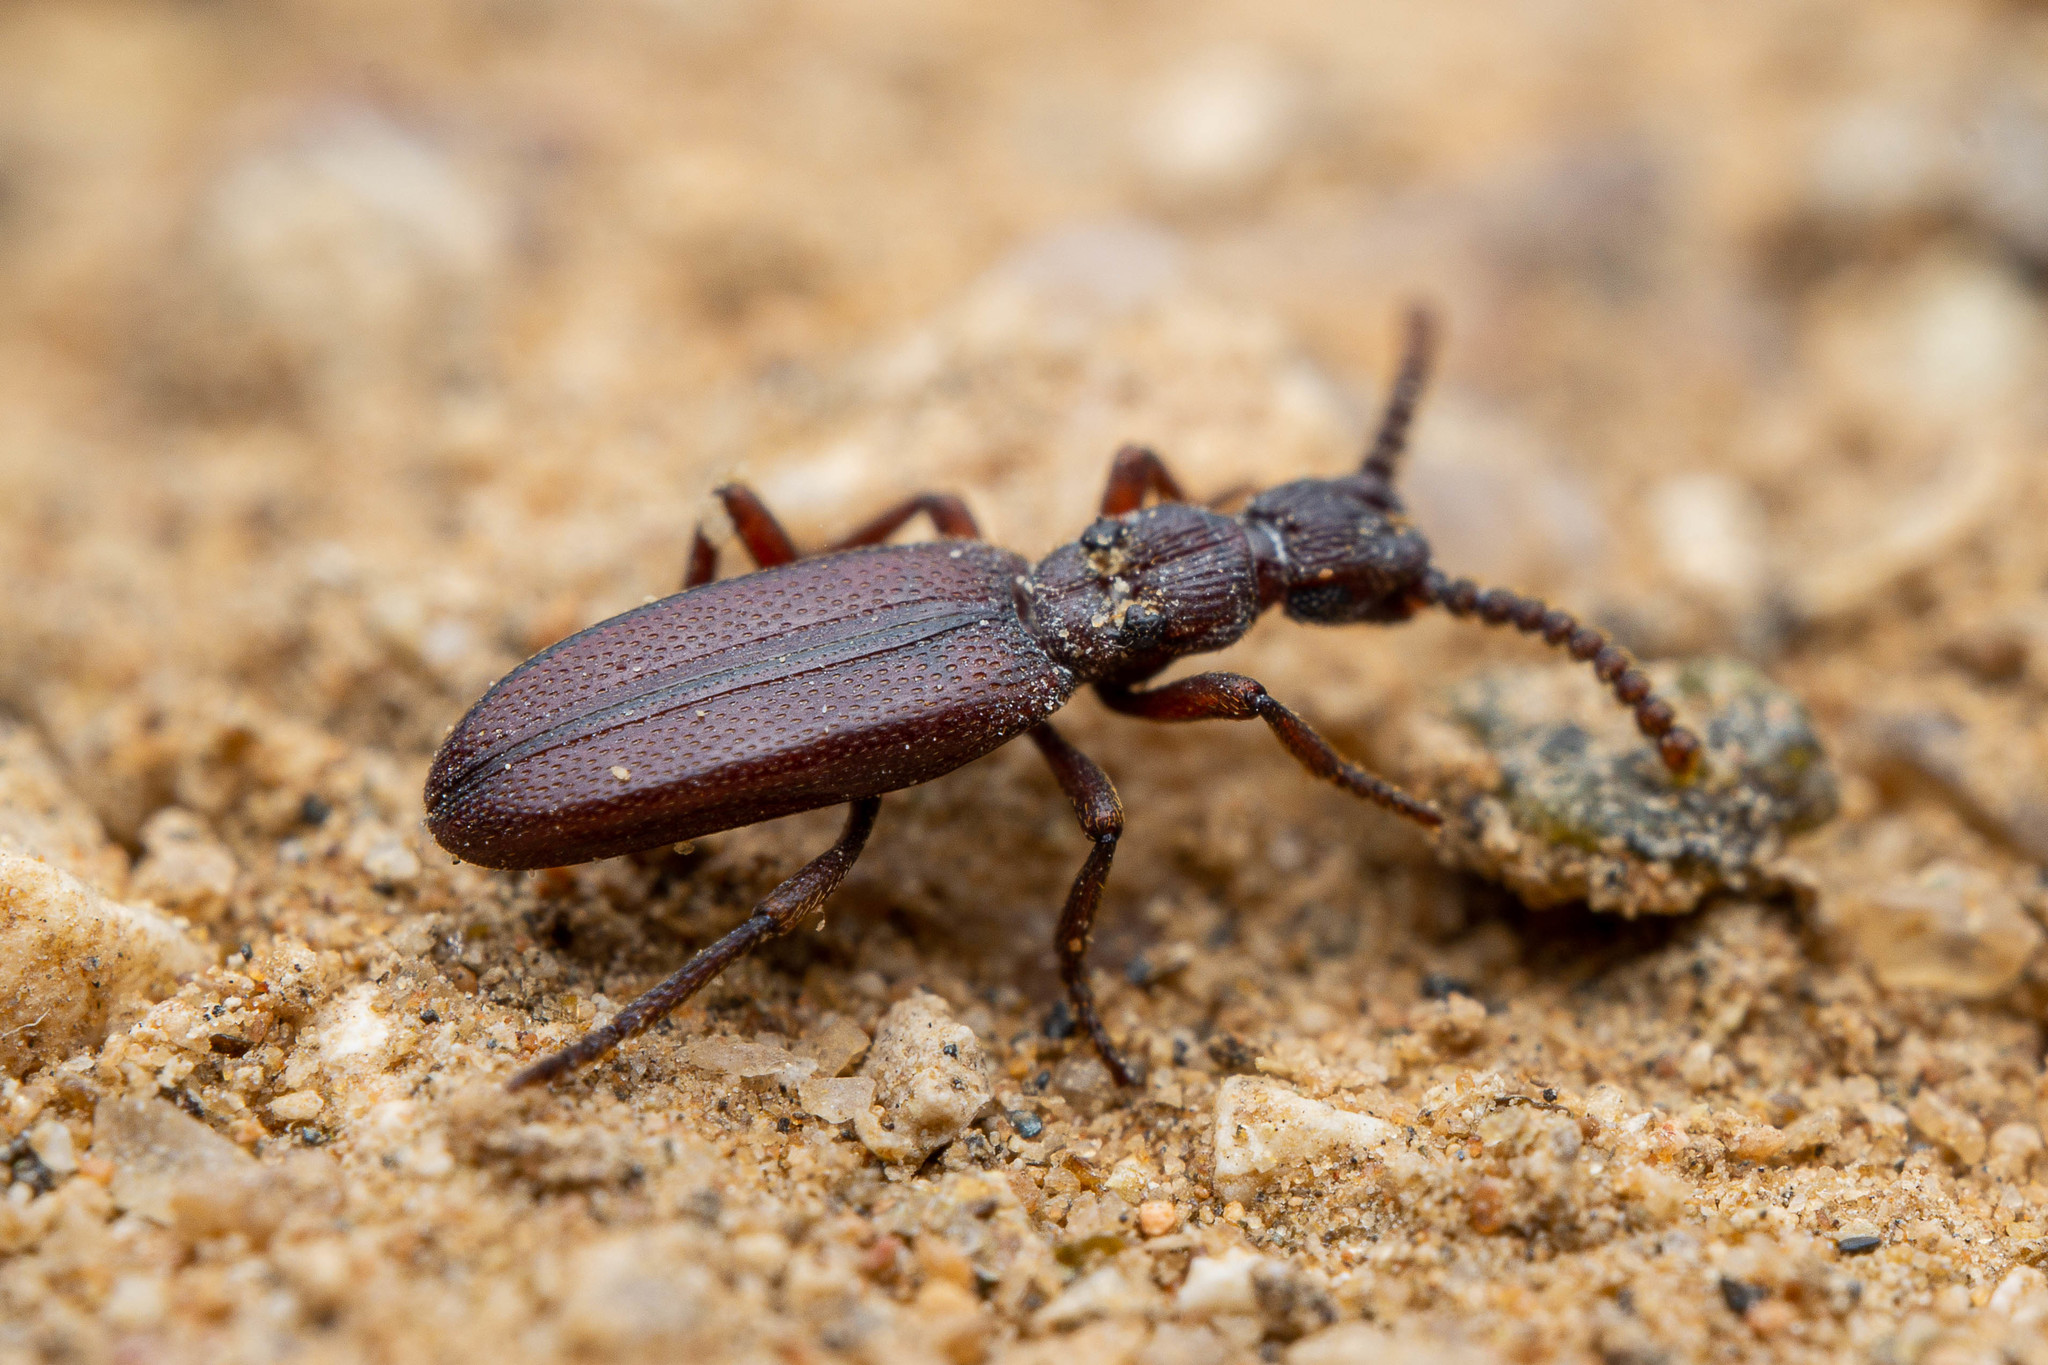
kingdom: Animalia
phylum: Arthropoda
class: Insecta
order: Coleoptera
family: Salpingidae
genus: Dacoderus
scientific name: Dacoderus striaticeps
